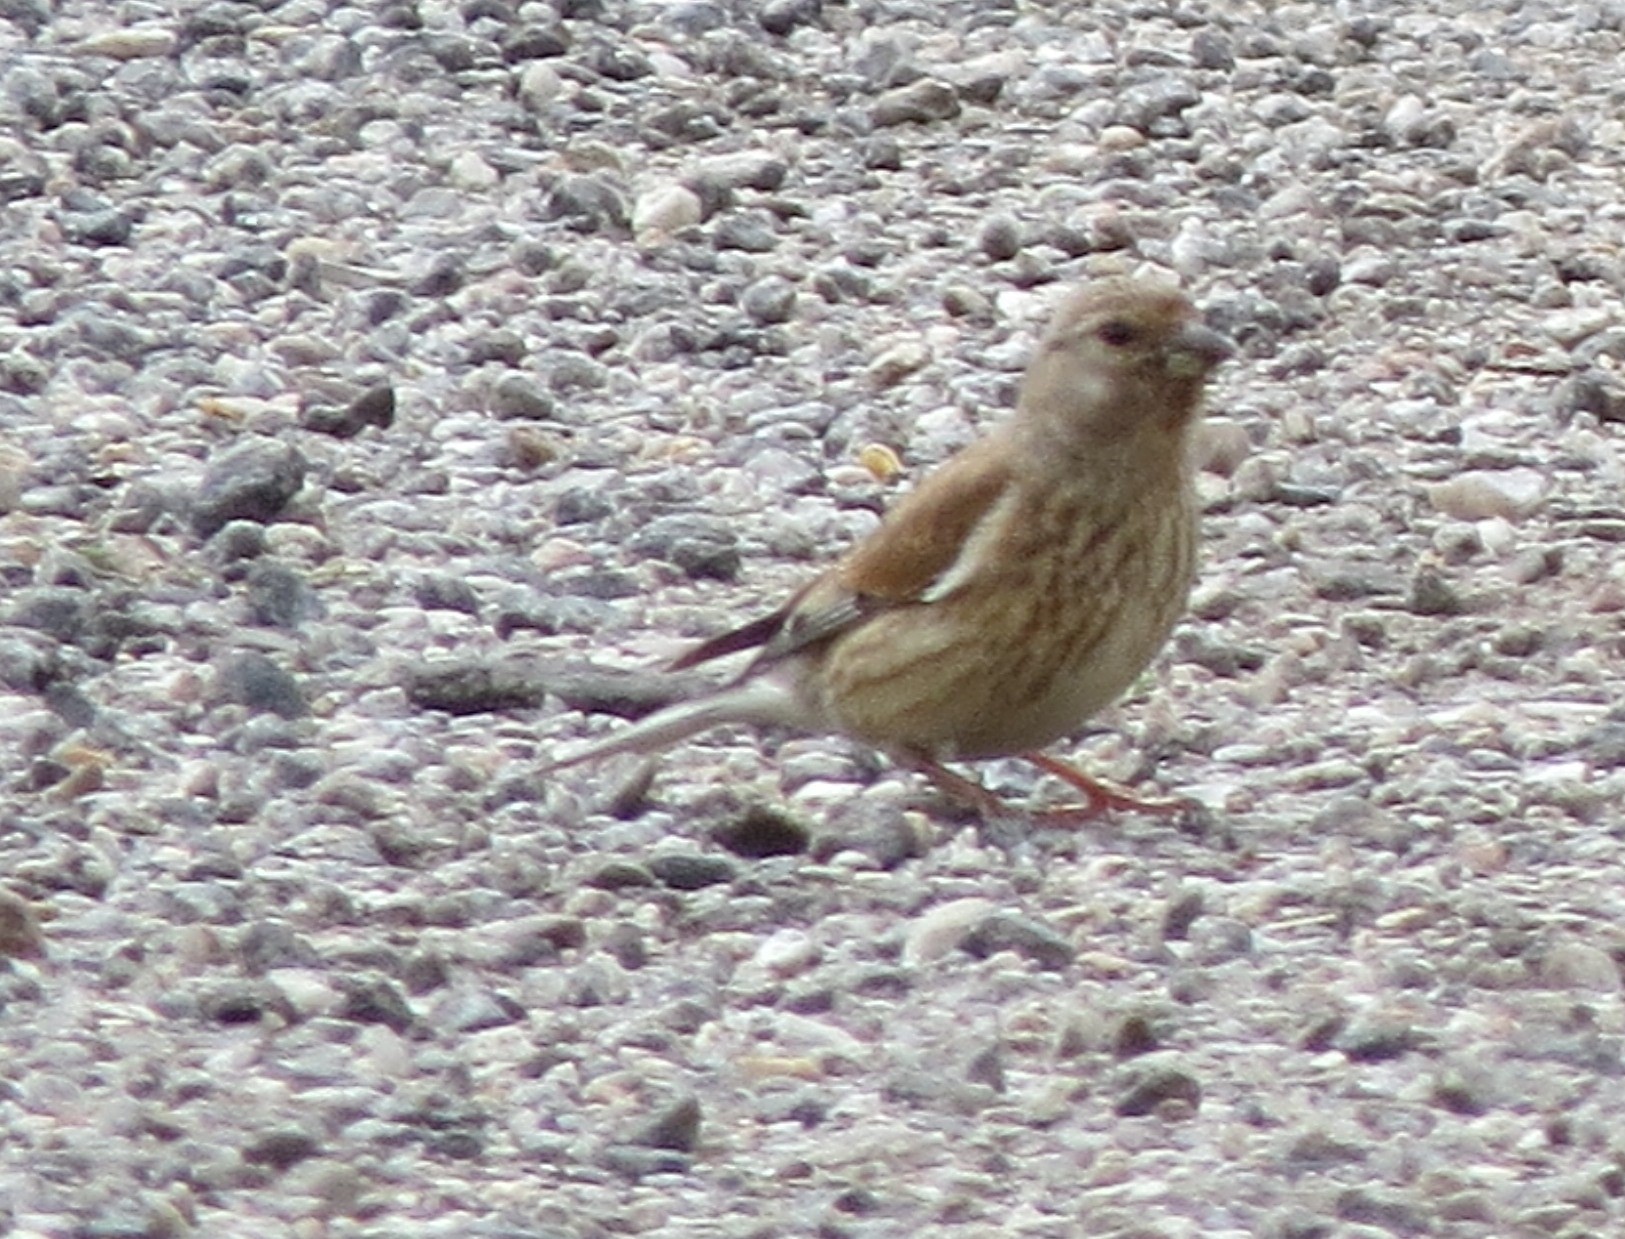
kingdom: Animalia
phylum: Chordata
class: Aves
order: Passeriformes
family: Fringillidae
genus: Linaria
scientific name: Linaria cannabina
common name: Common linnet
